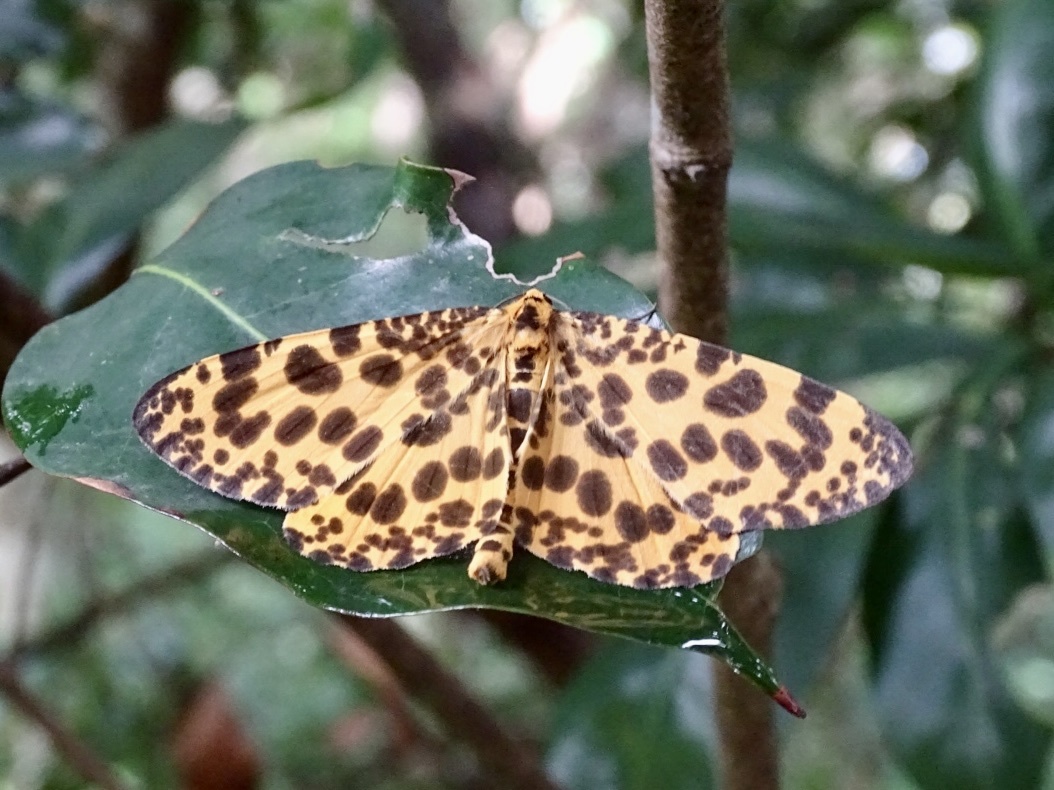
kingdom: Animalia
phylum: Arthropoda
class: Insecta
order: Lepidoptera
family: Geometridae
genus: Obeidia
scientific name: Obeidia Epobeidia tigrata
